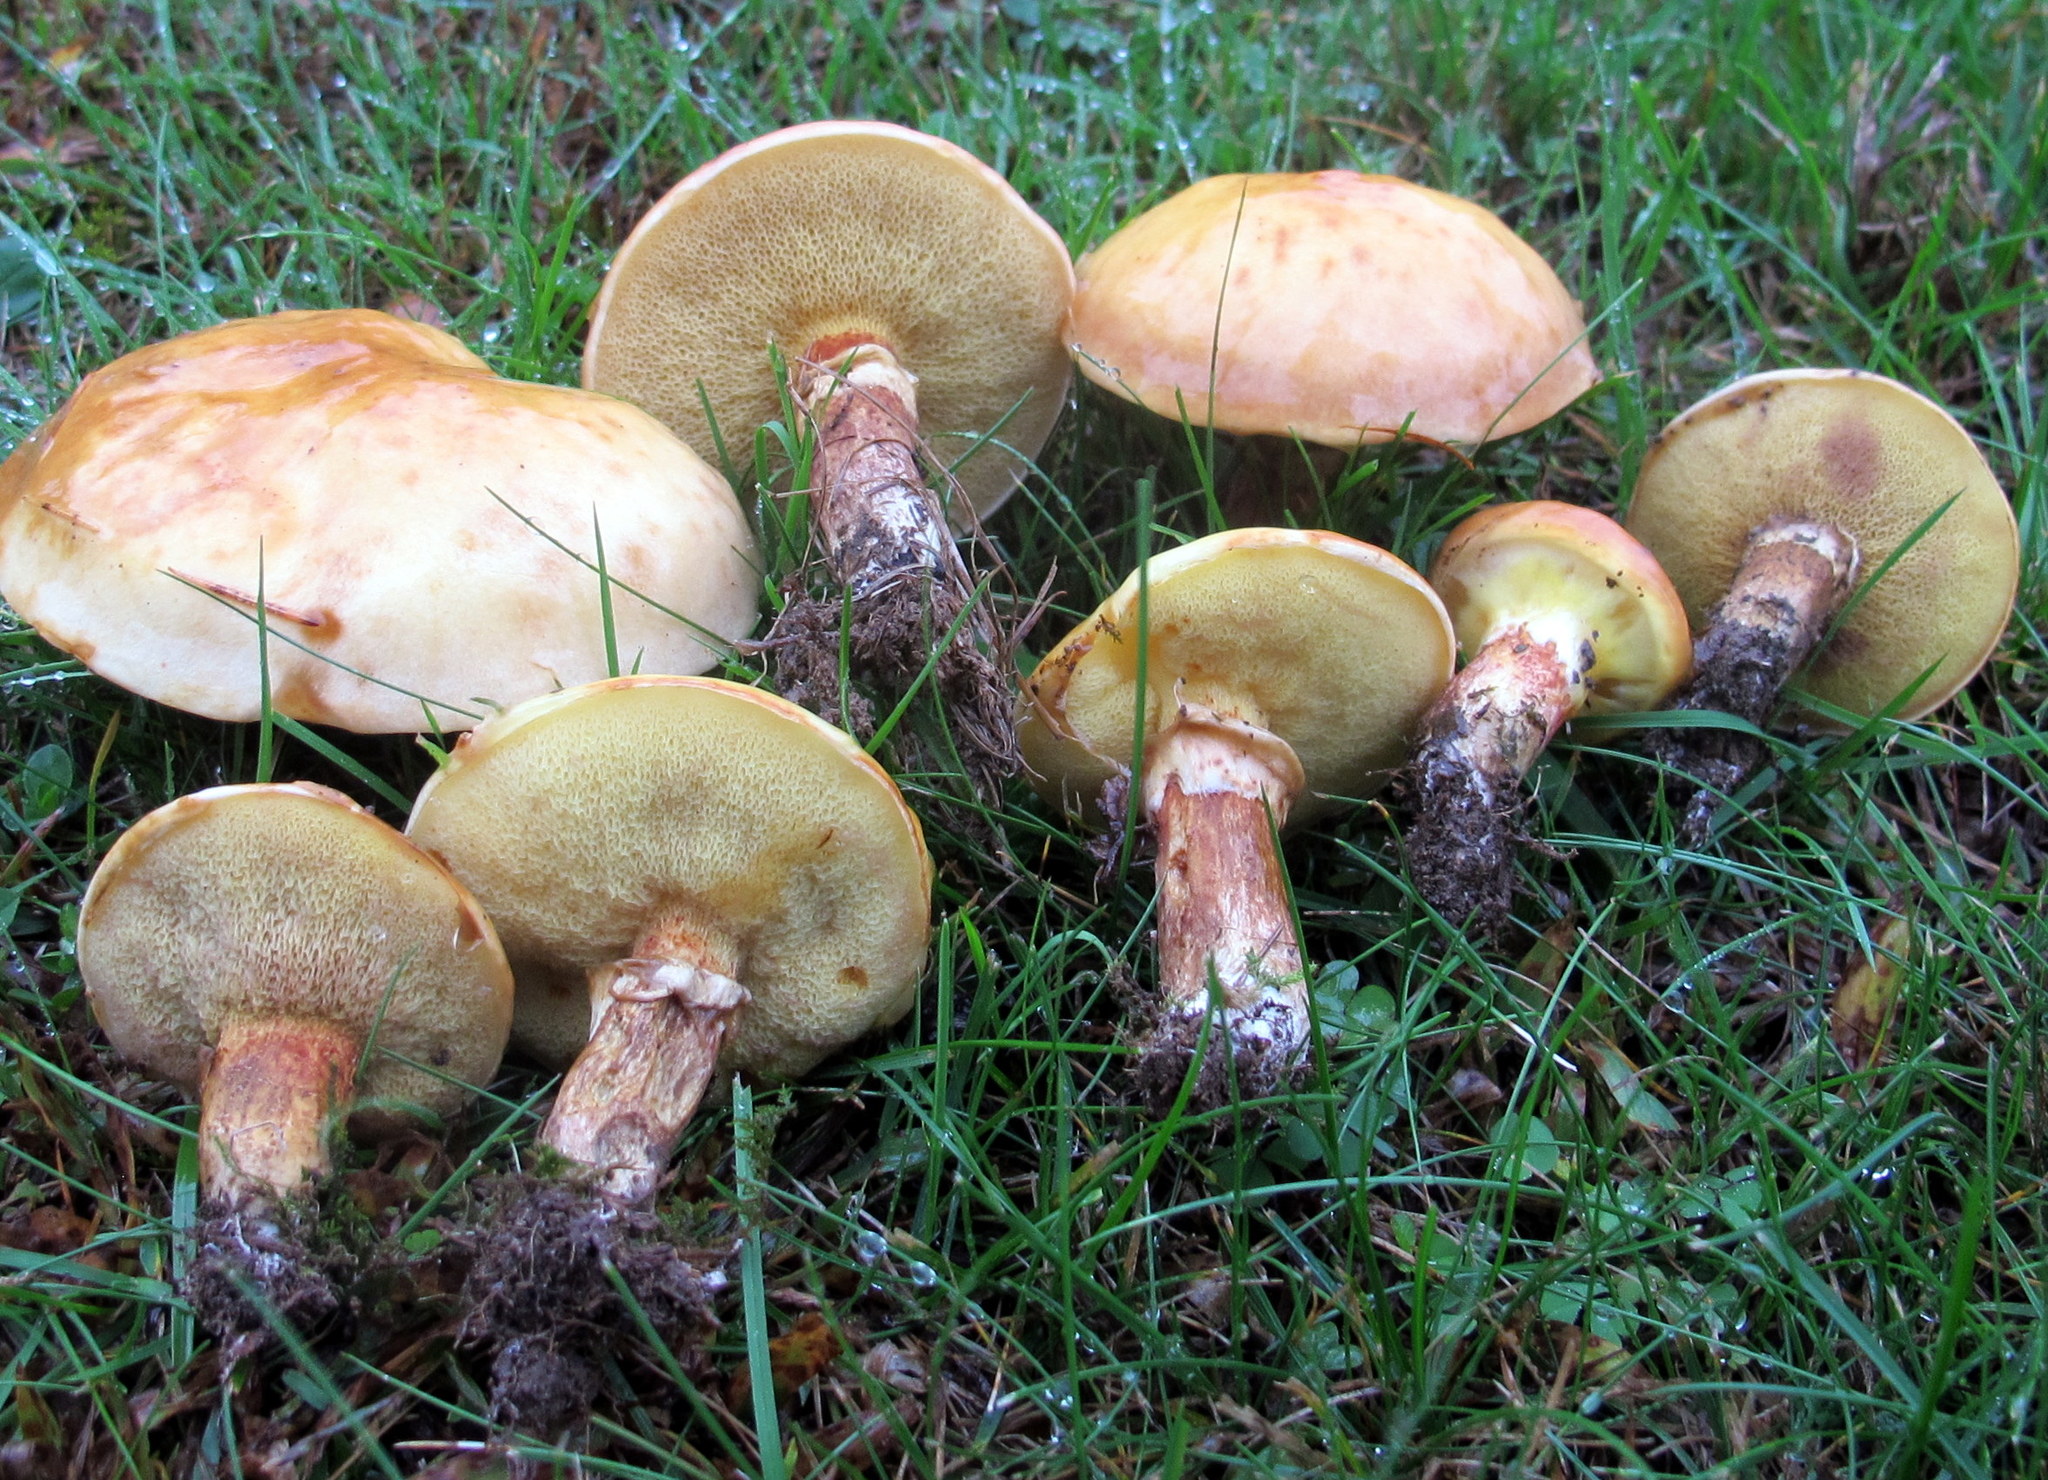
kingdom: Fungi
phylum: Basidiomycota
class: Agaricomycetes
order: Boletales
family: Suillaceae
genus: Suillus
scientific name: Suillus grevillei
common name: Larch bolete
